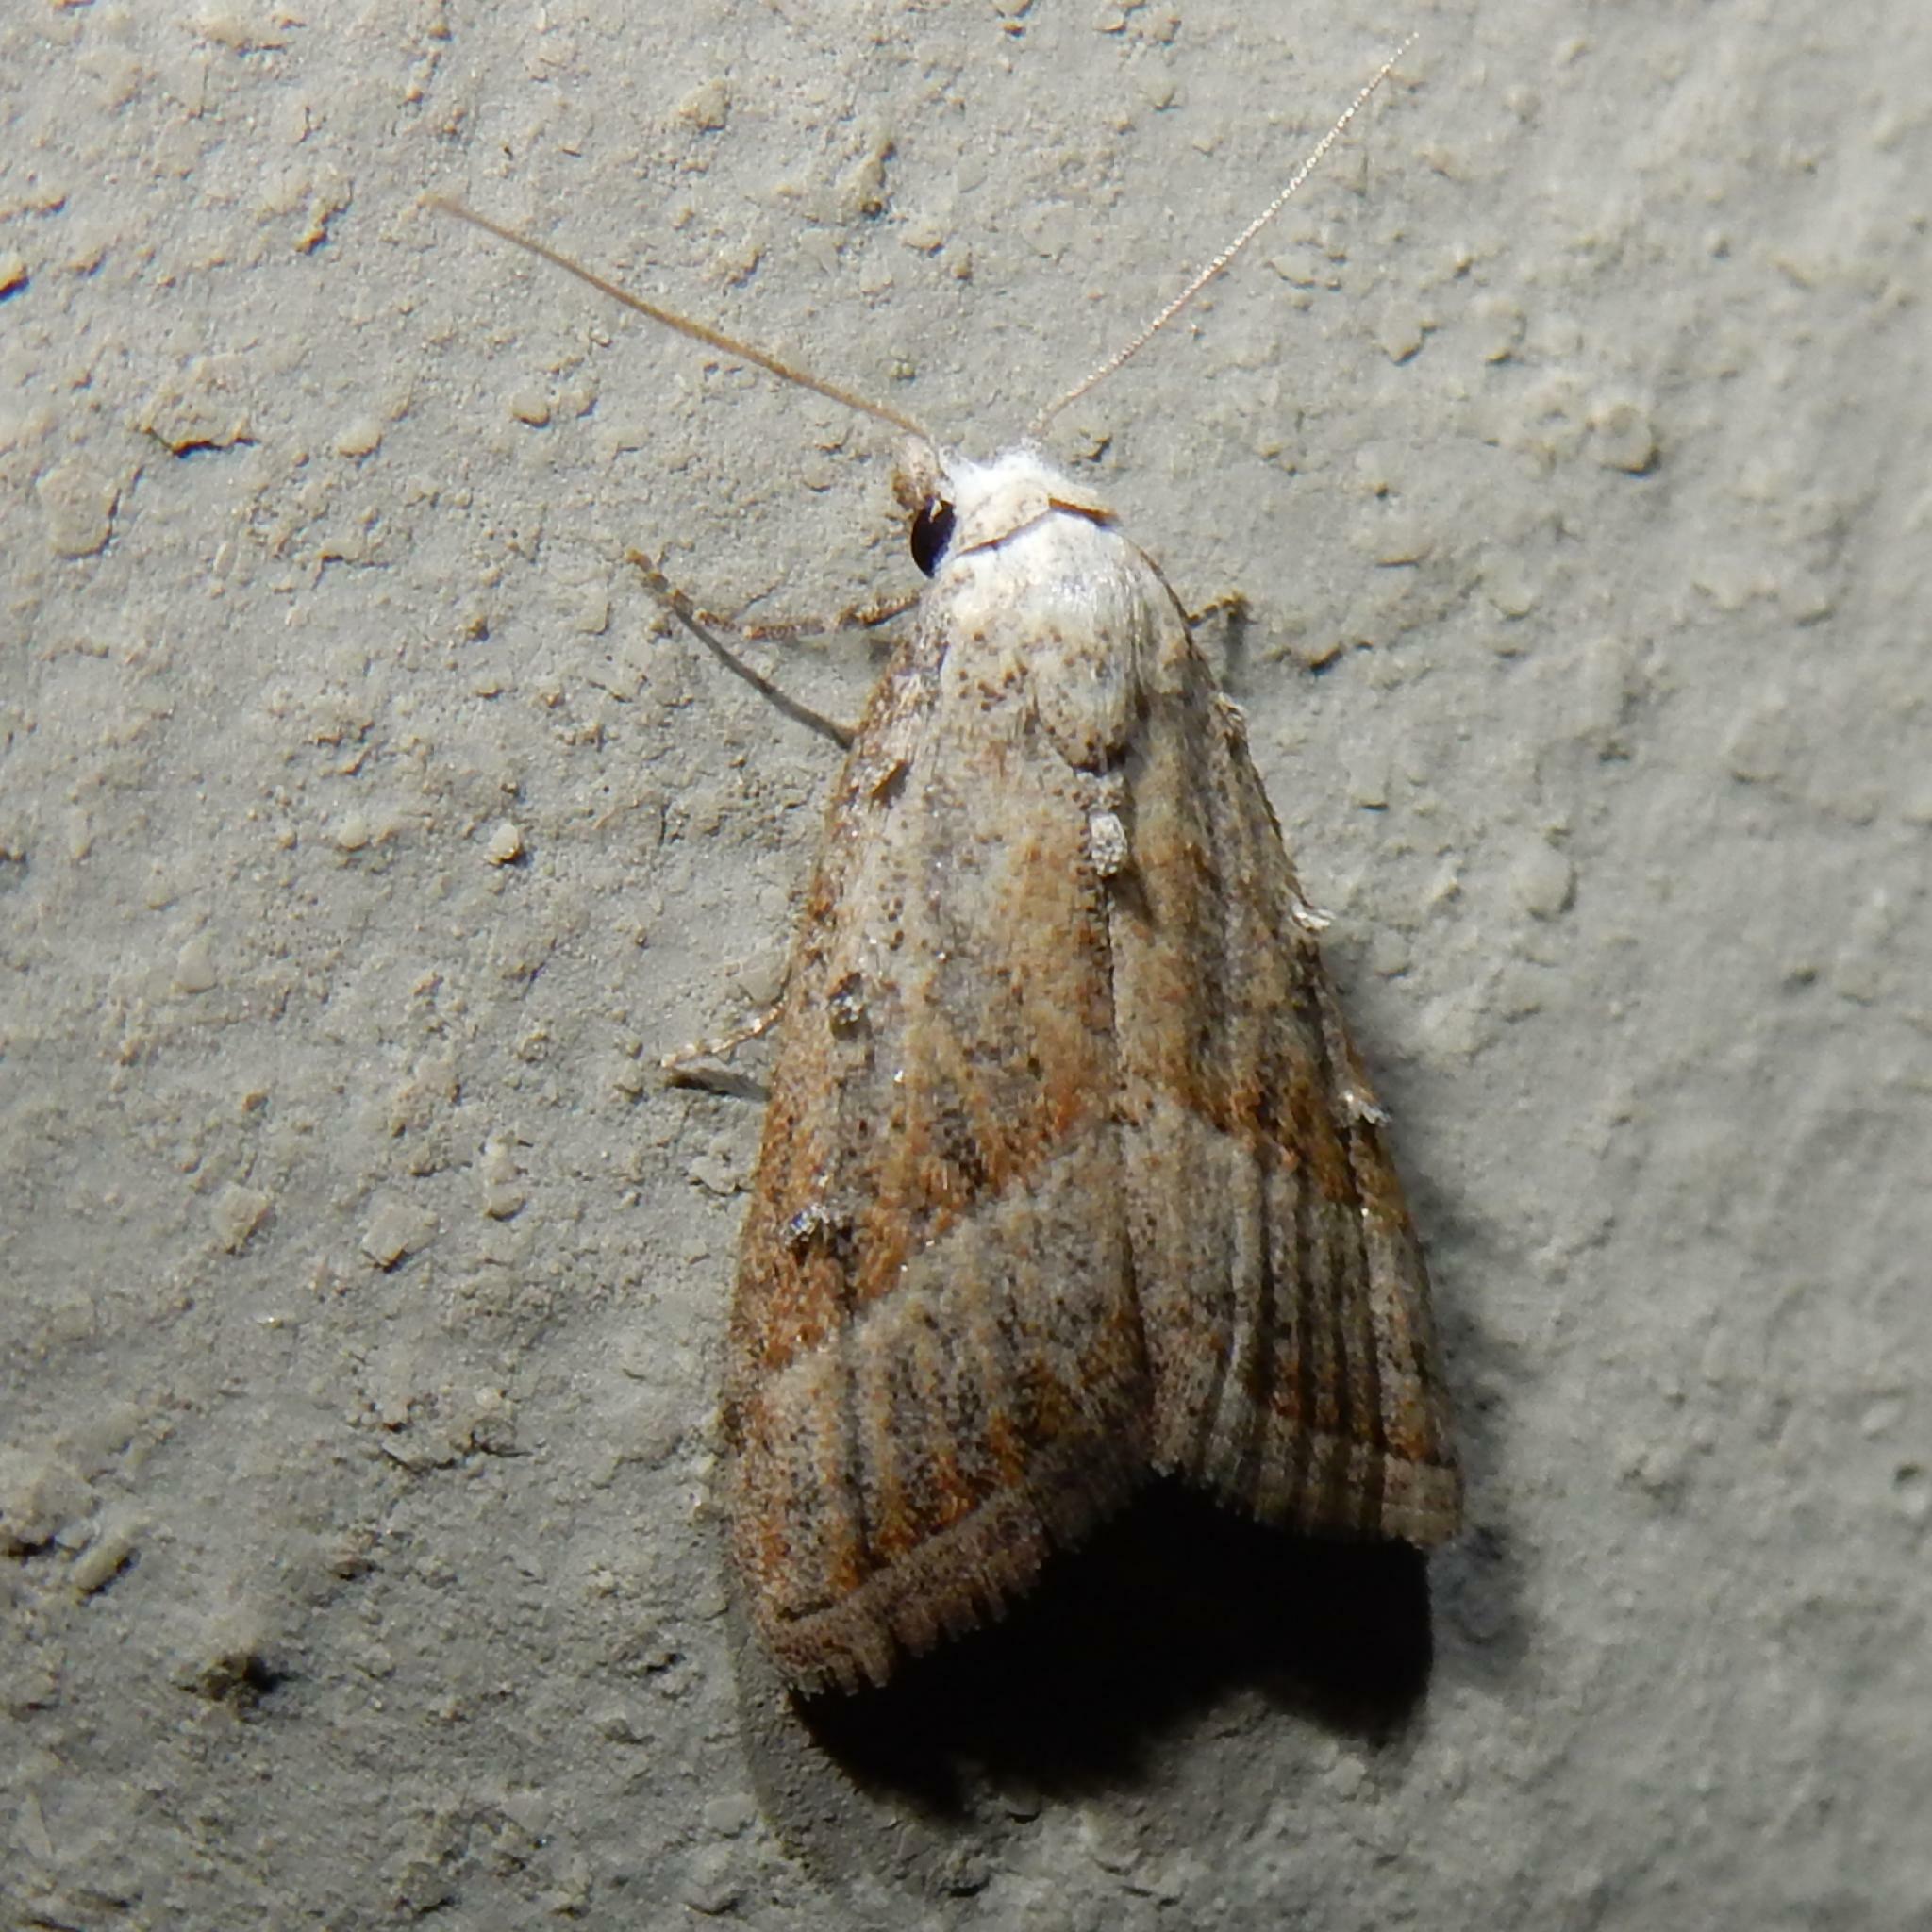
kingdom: Animalia
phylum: Arthropoda
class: Insecta
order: Lepidoptera
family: Nolidae
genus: Nola
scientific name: Nola tineoides
